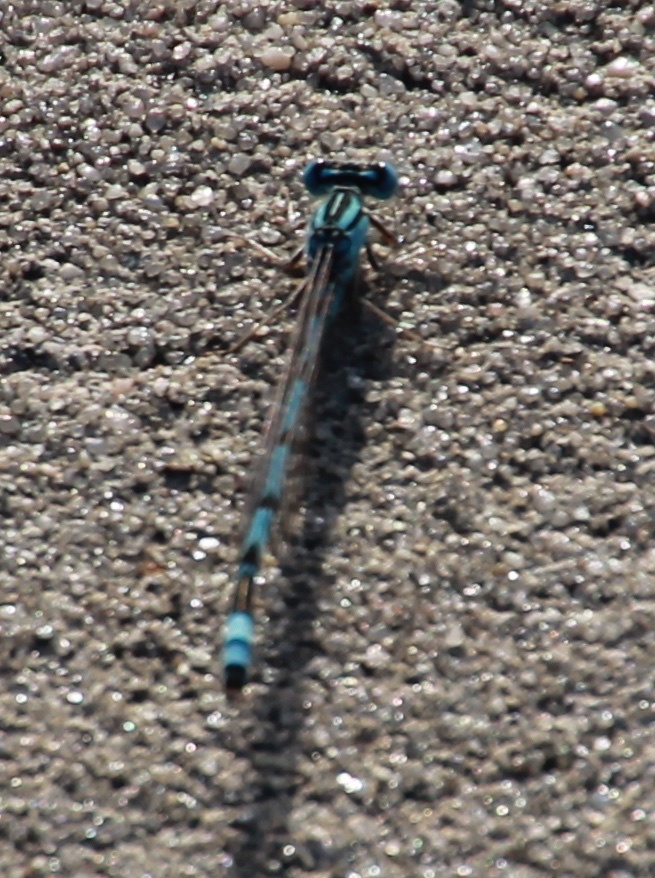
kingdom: Animalia
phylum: Arthropoda
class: Insecta
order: Odonata
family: Coenagrionidae
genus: Enallagma
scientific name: Enallagma durum
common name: Big bluet
